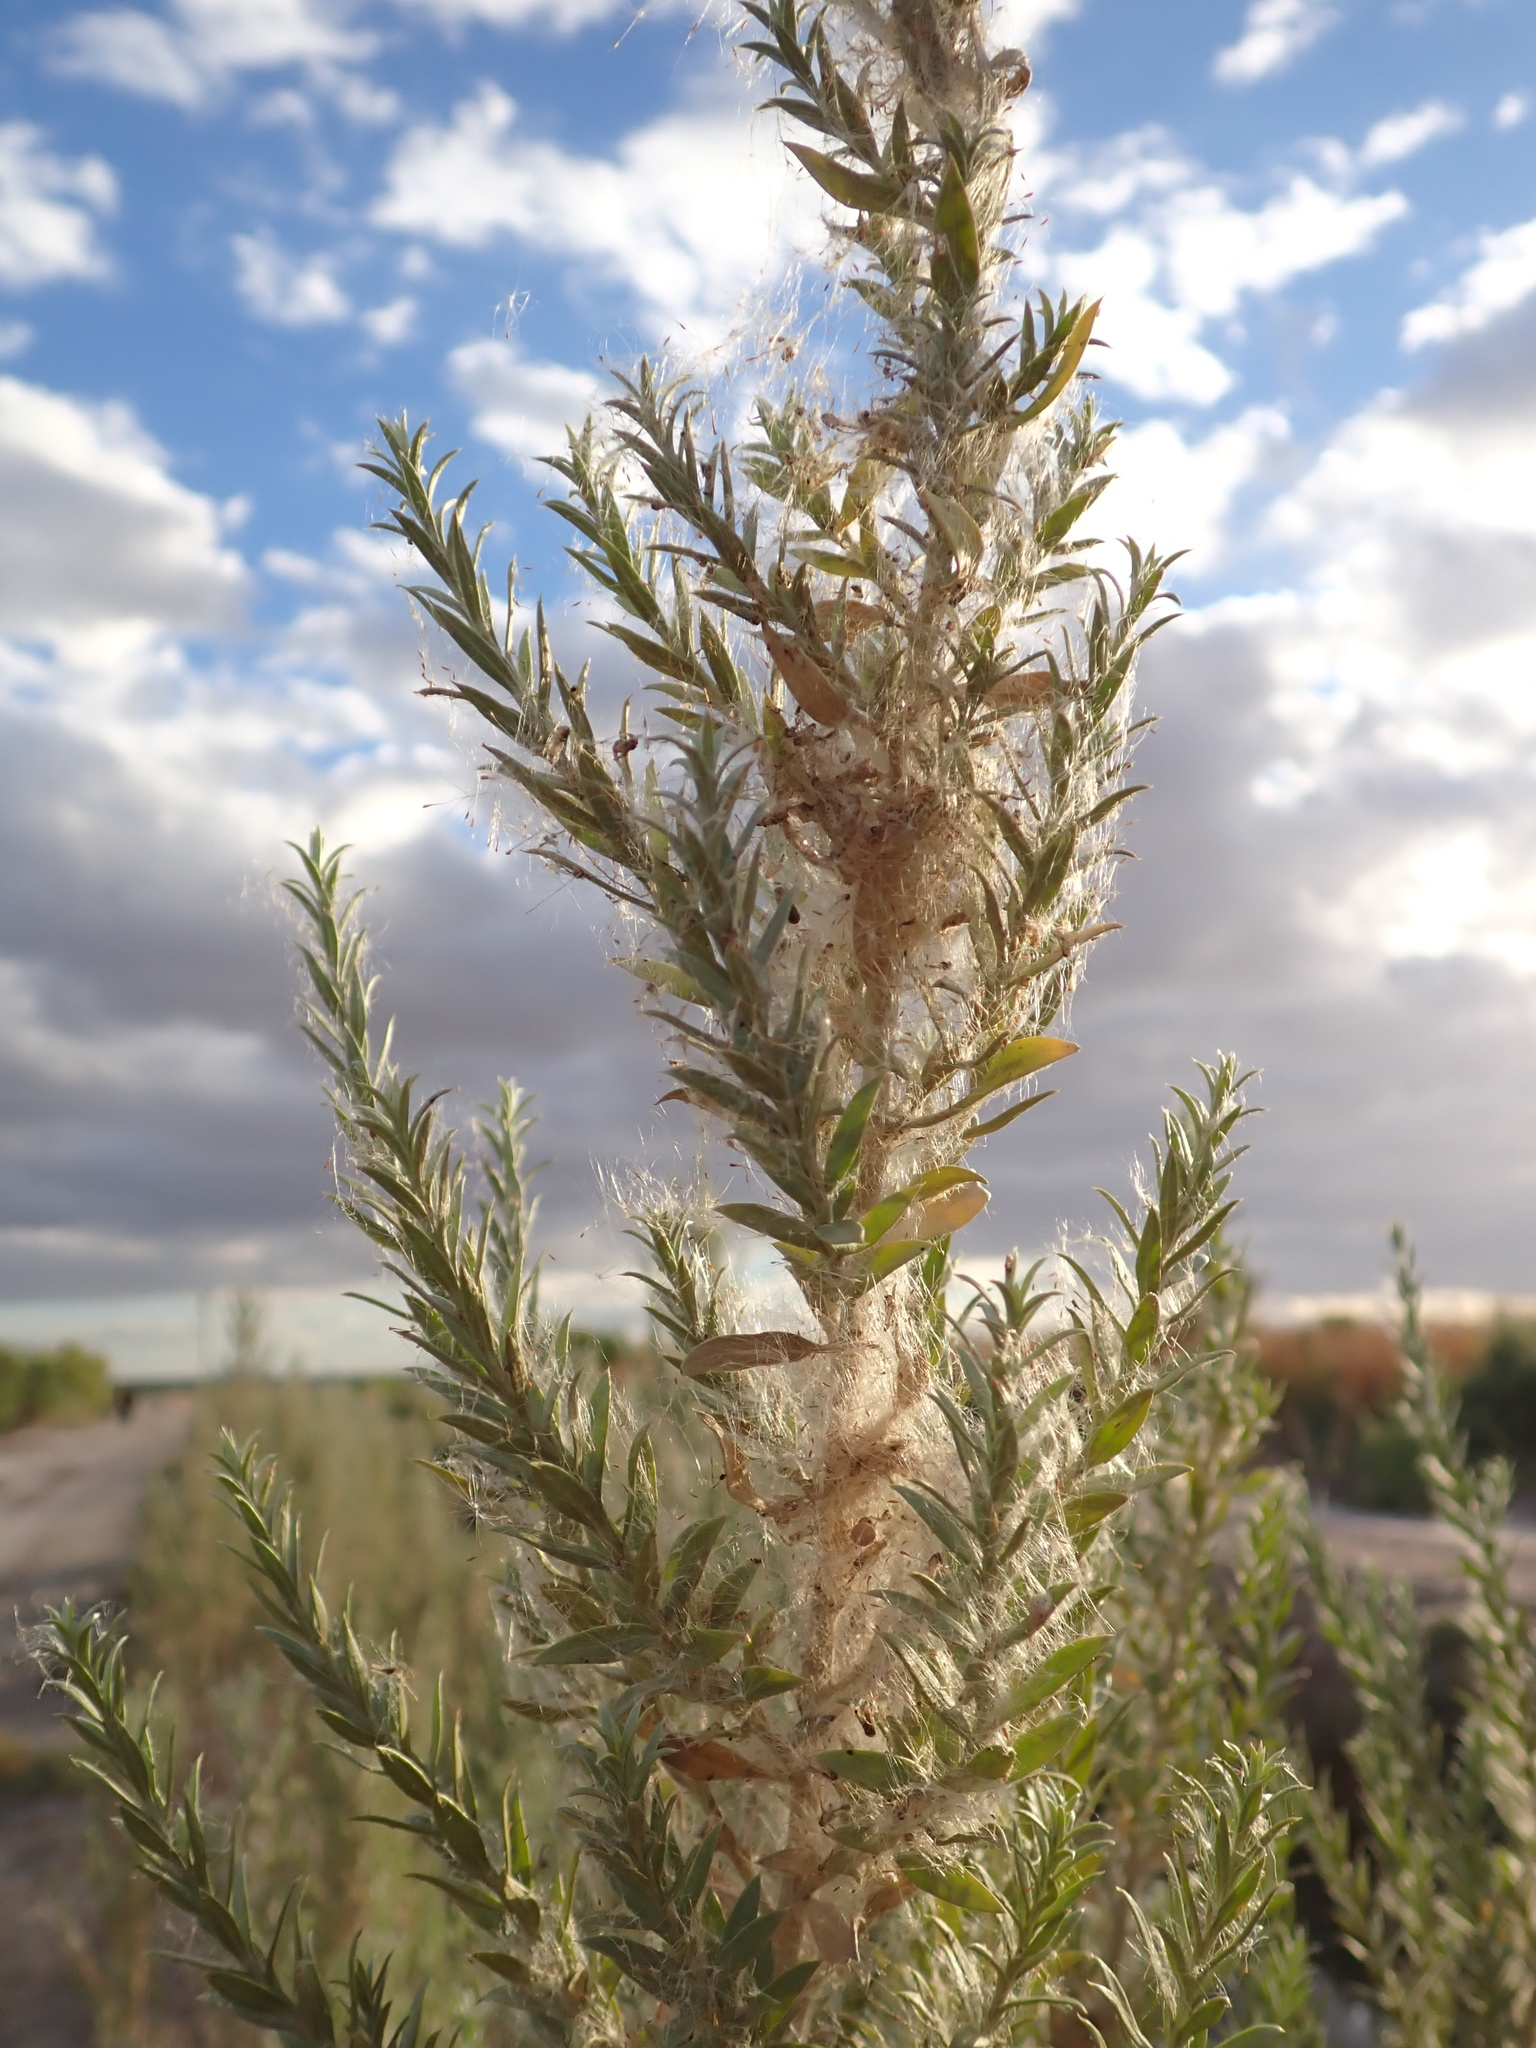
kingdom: Plantae
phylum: Tracheophyta
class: Magnoliopsida
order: Asterales
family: Asteraceae
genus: Pluchea
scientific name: Pluchea sericea
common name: Arrow-weed
